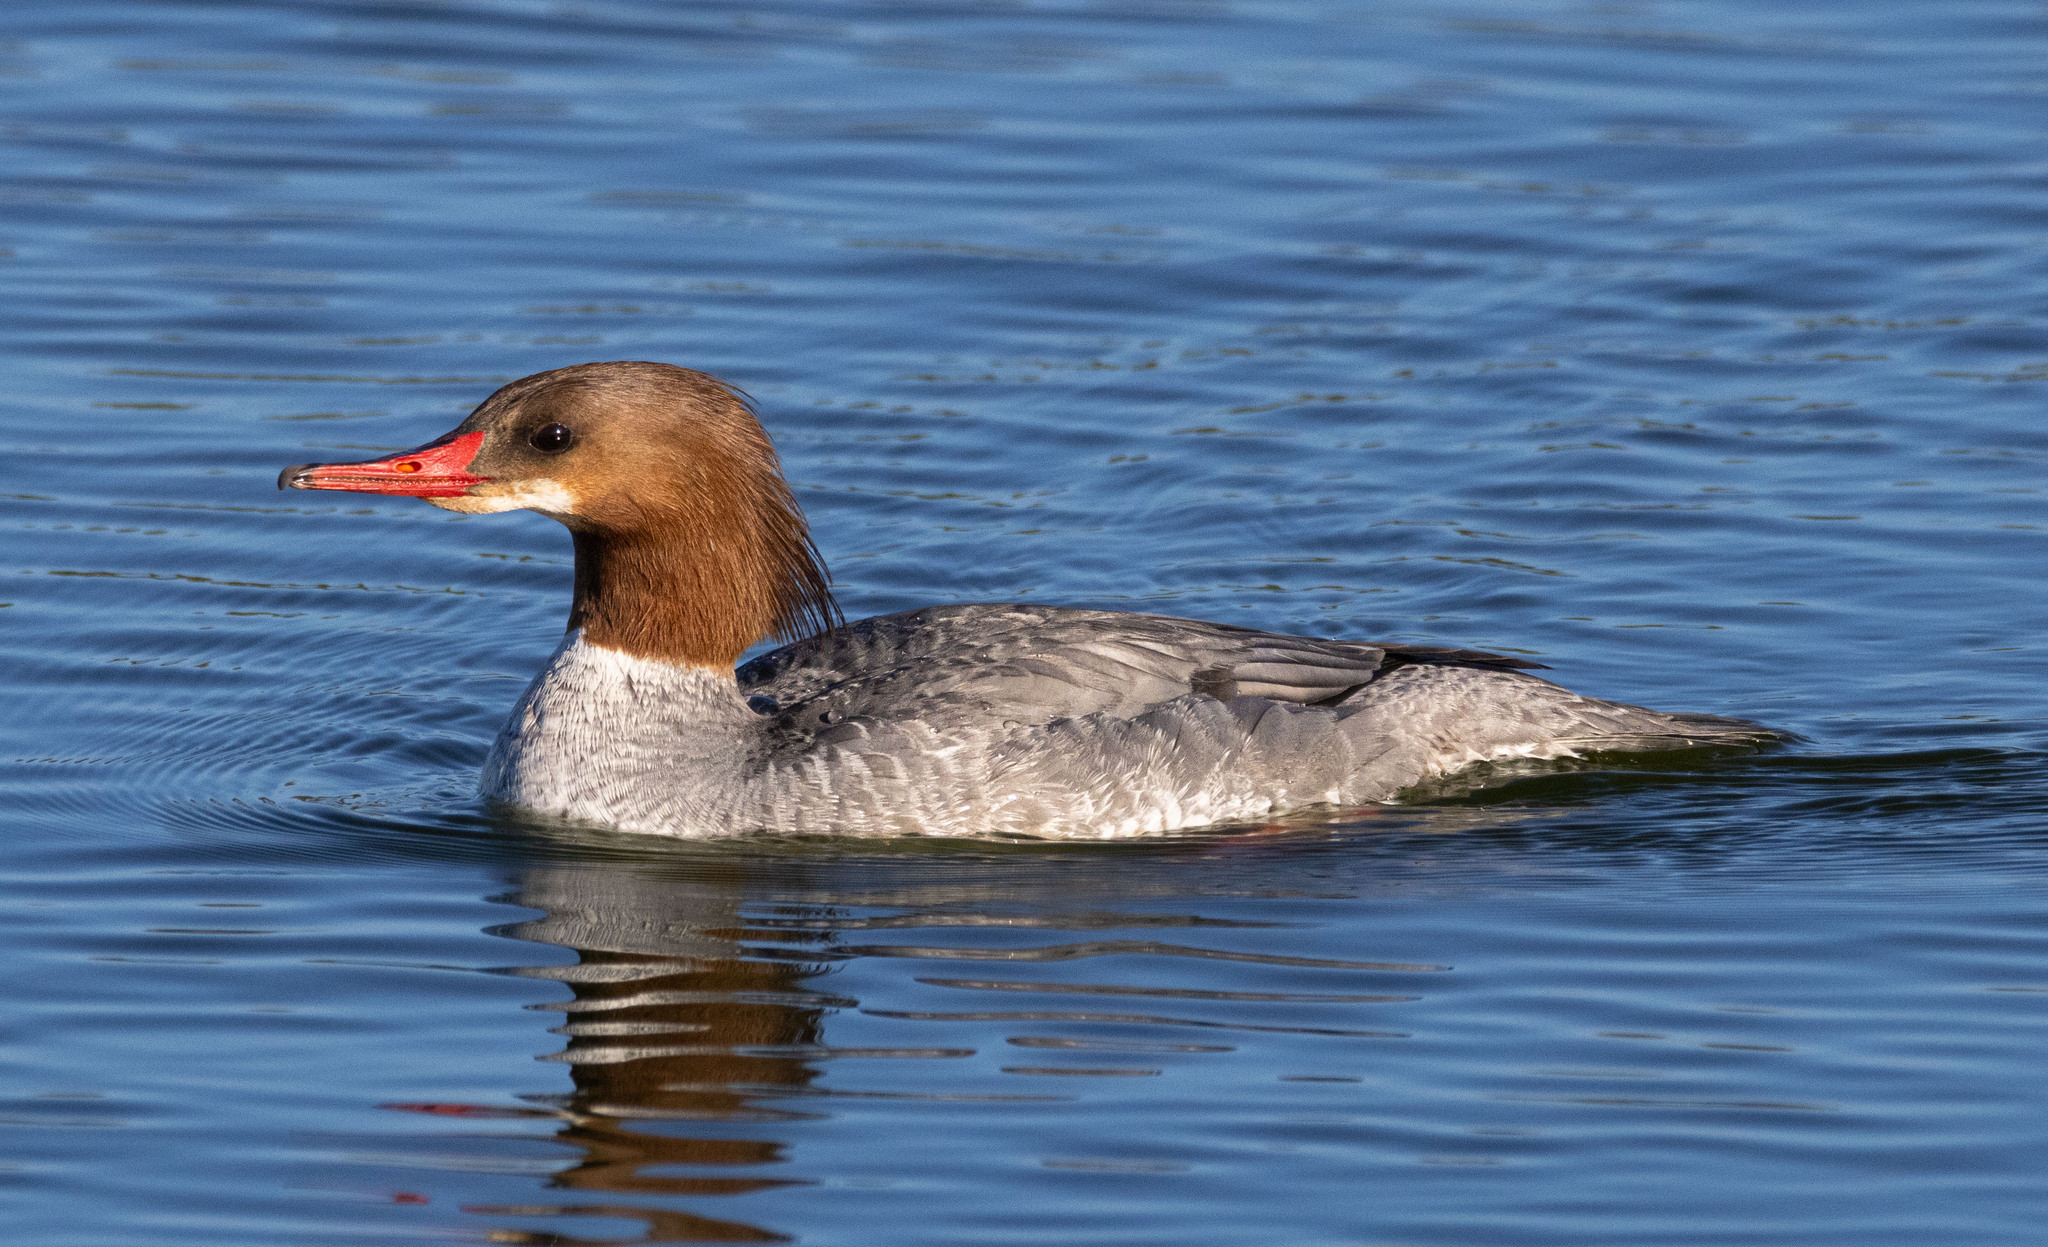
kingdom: Animalia
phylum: Chordata
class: Aves
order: Anseriformes
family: Anatidae
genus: Mergus
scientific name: Mergus merganser
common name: Common merganser
